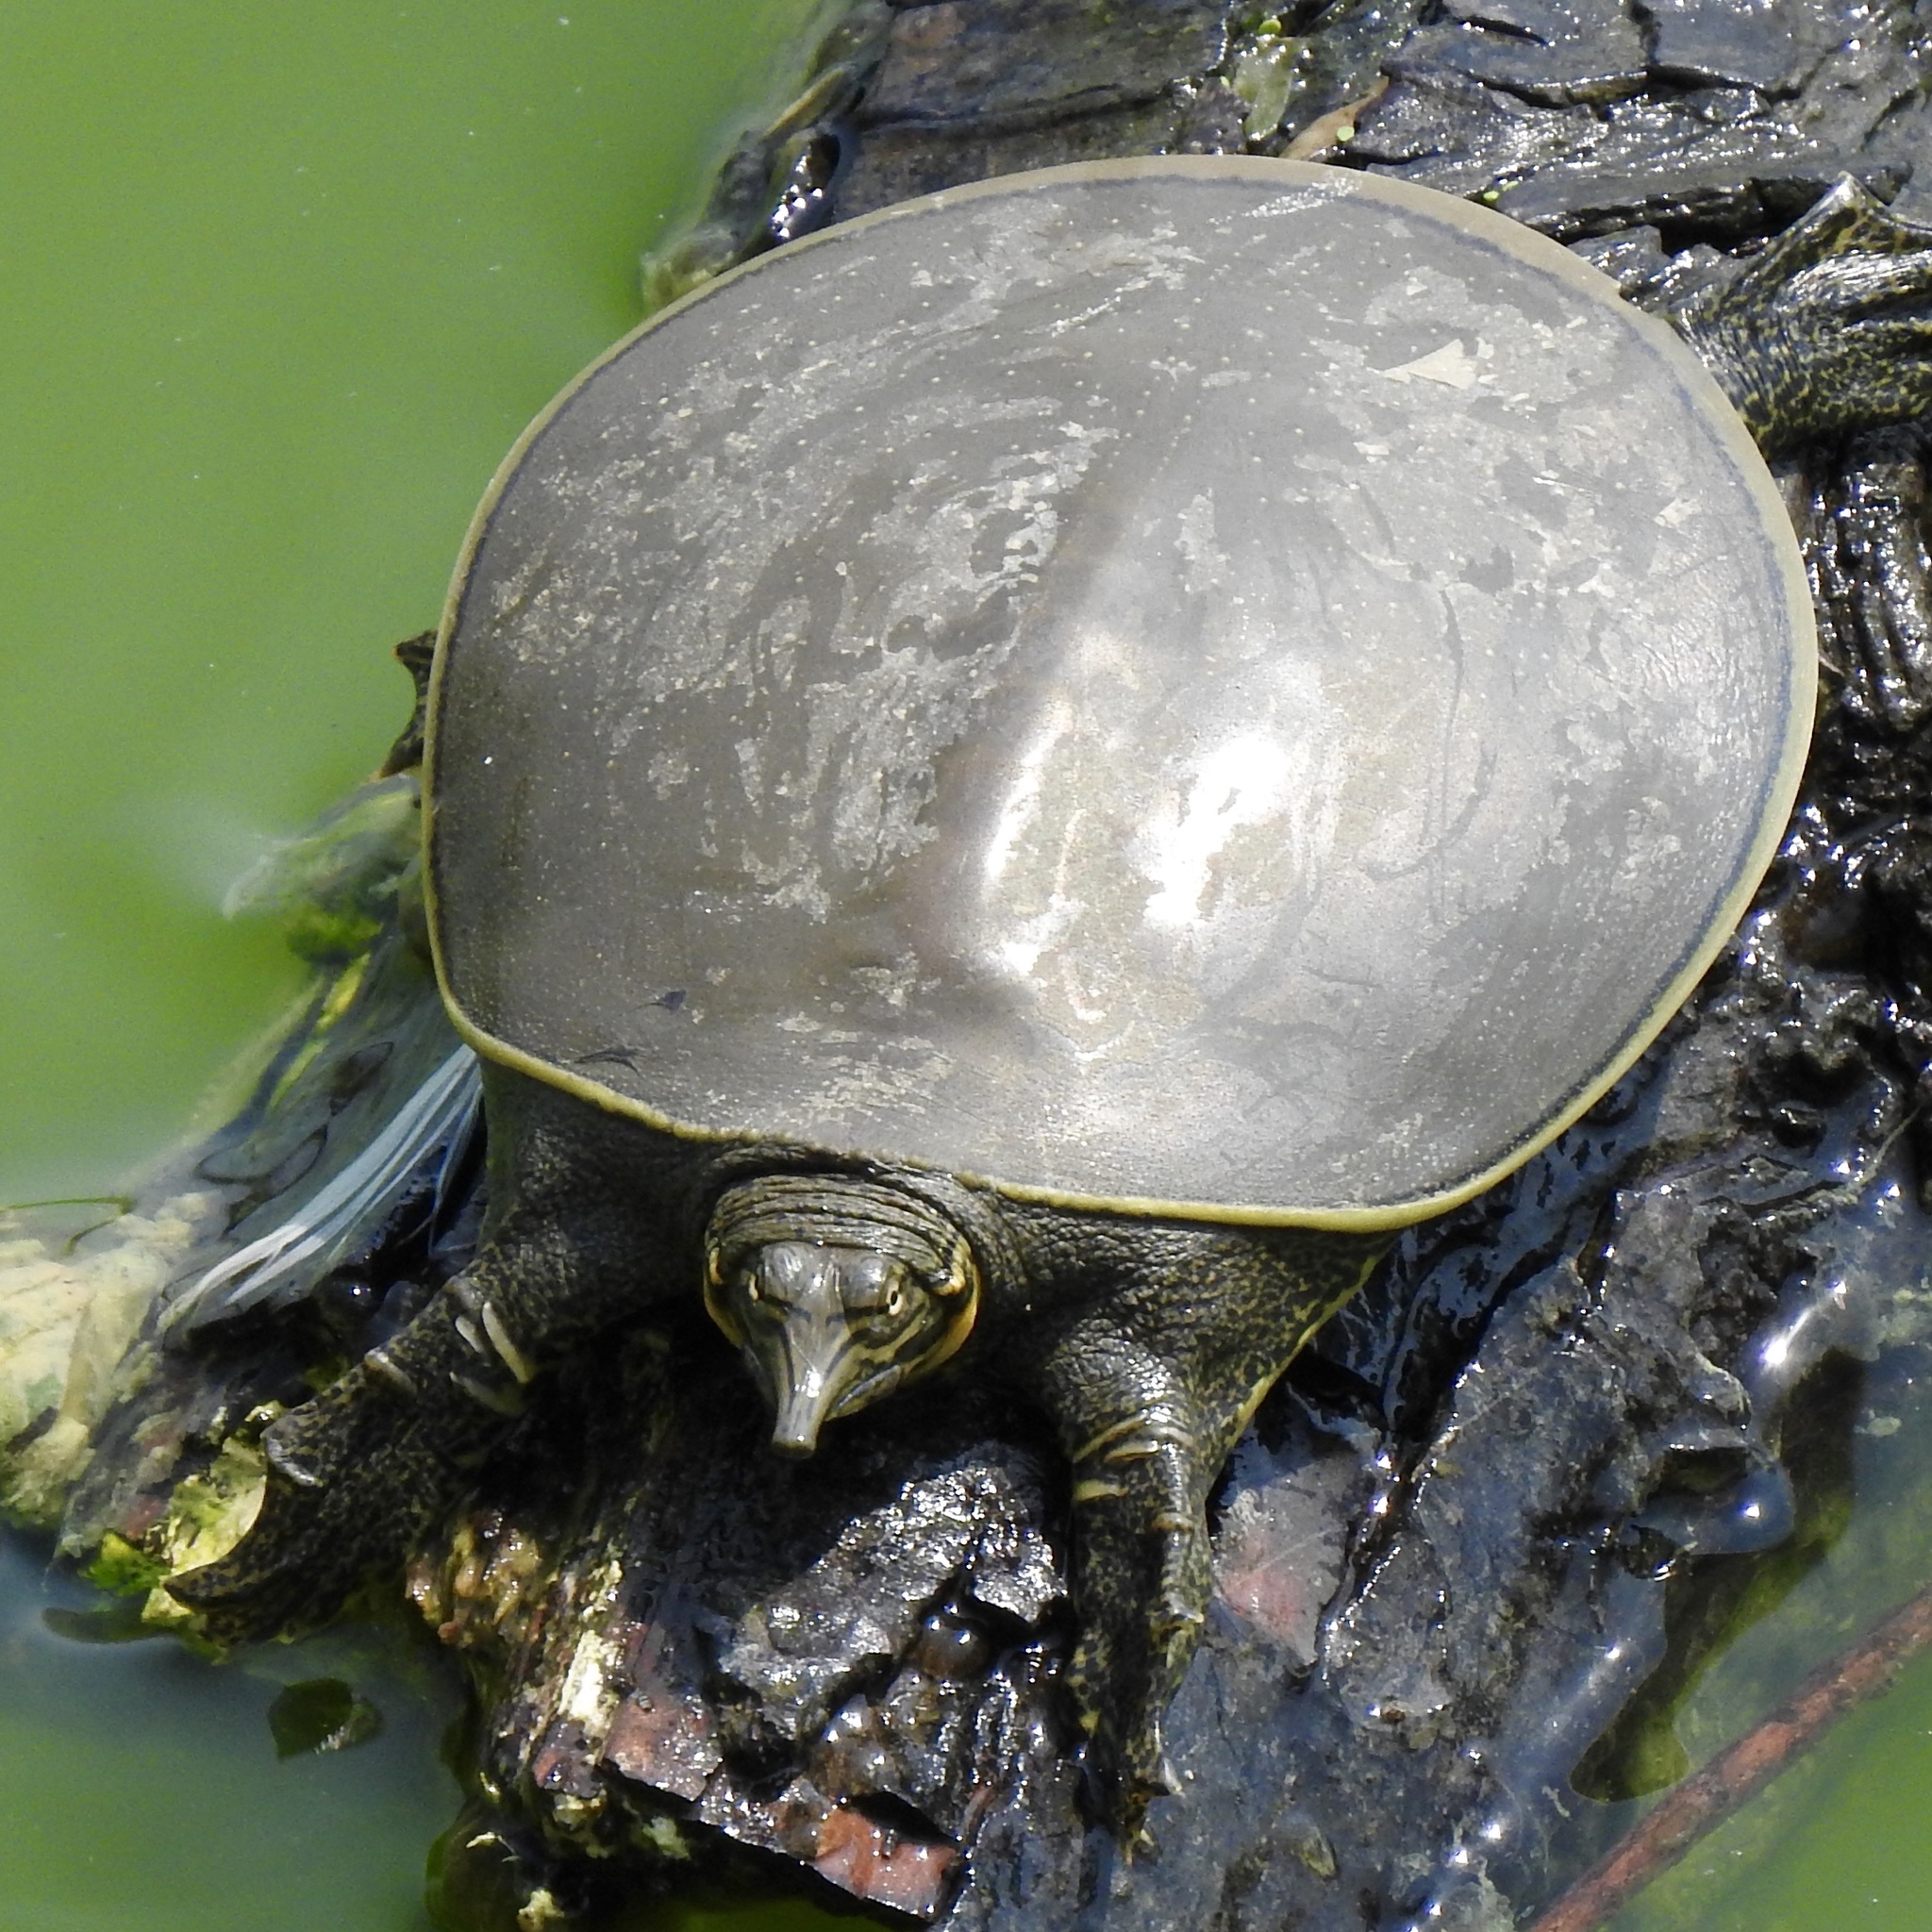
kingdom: Animalia
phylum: Chordata
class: Testudines
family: Trionychidae
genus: Apalone
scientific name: Apalone spinifera
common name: Spiny softshell turtle
